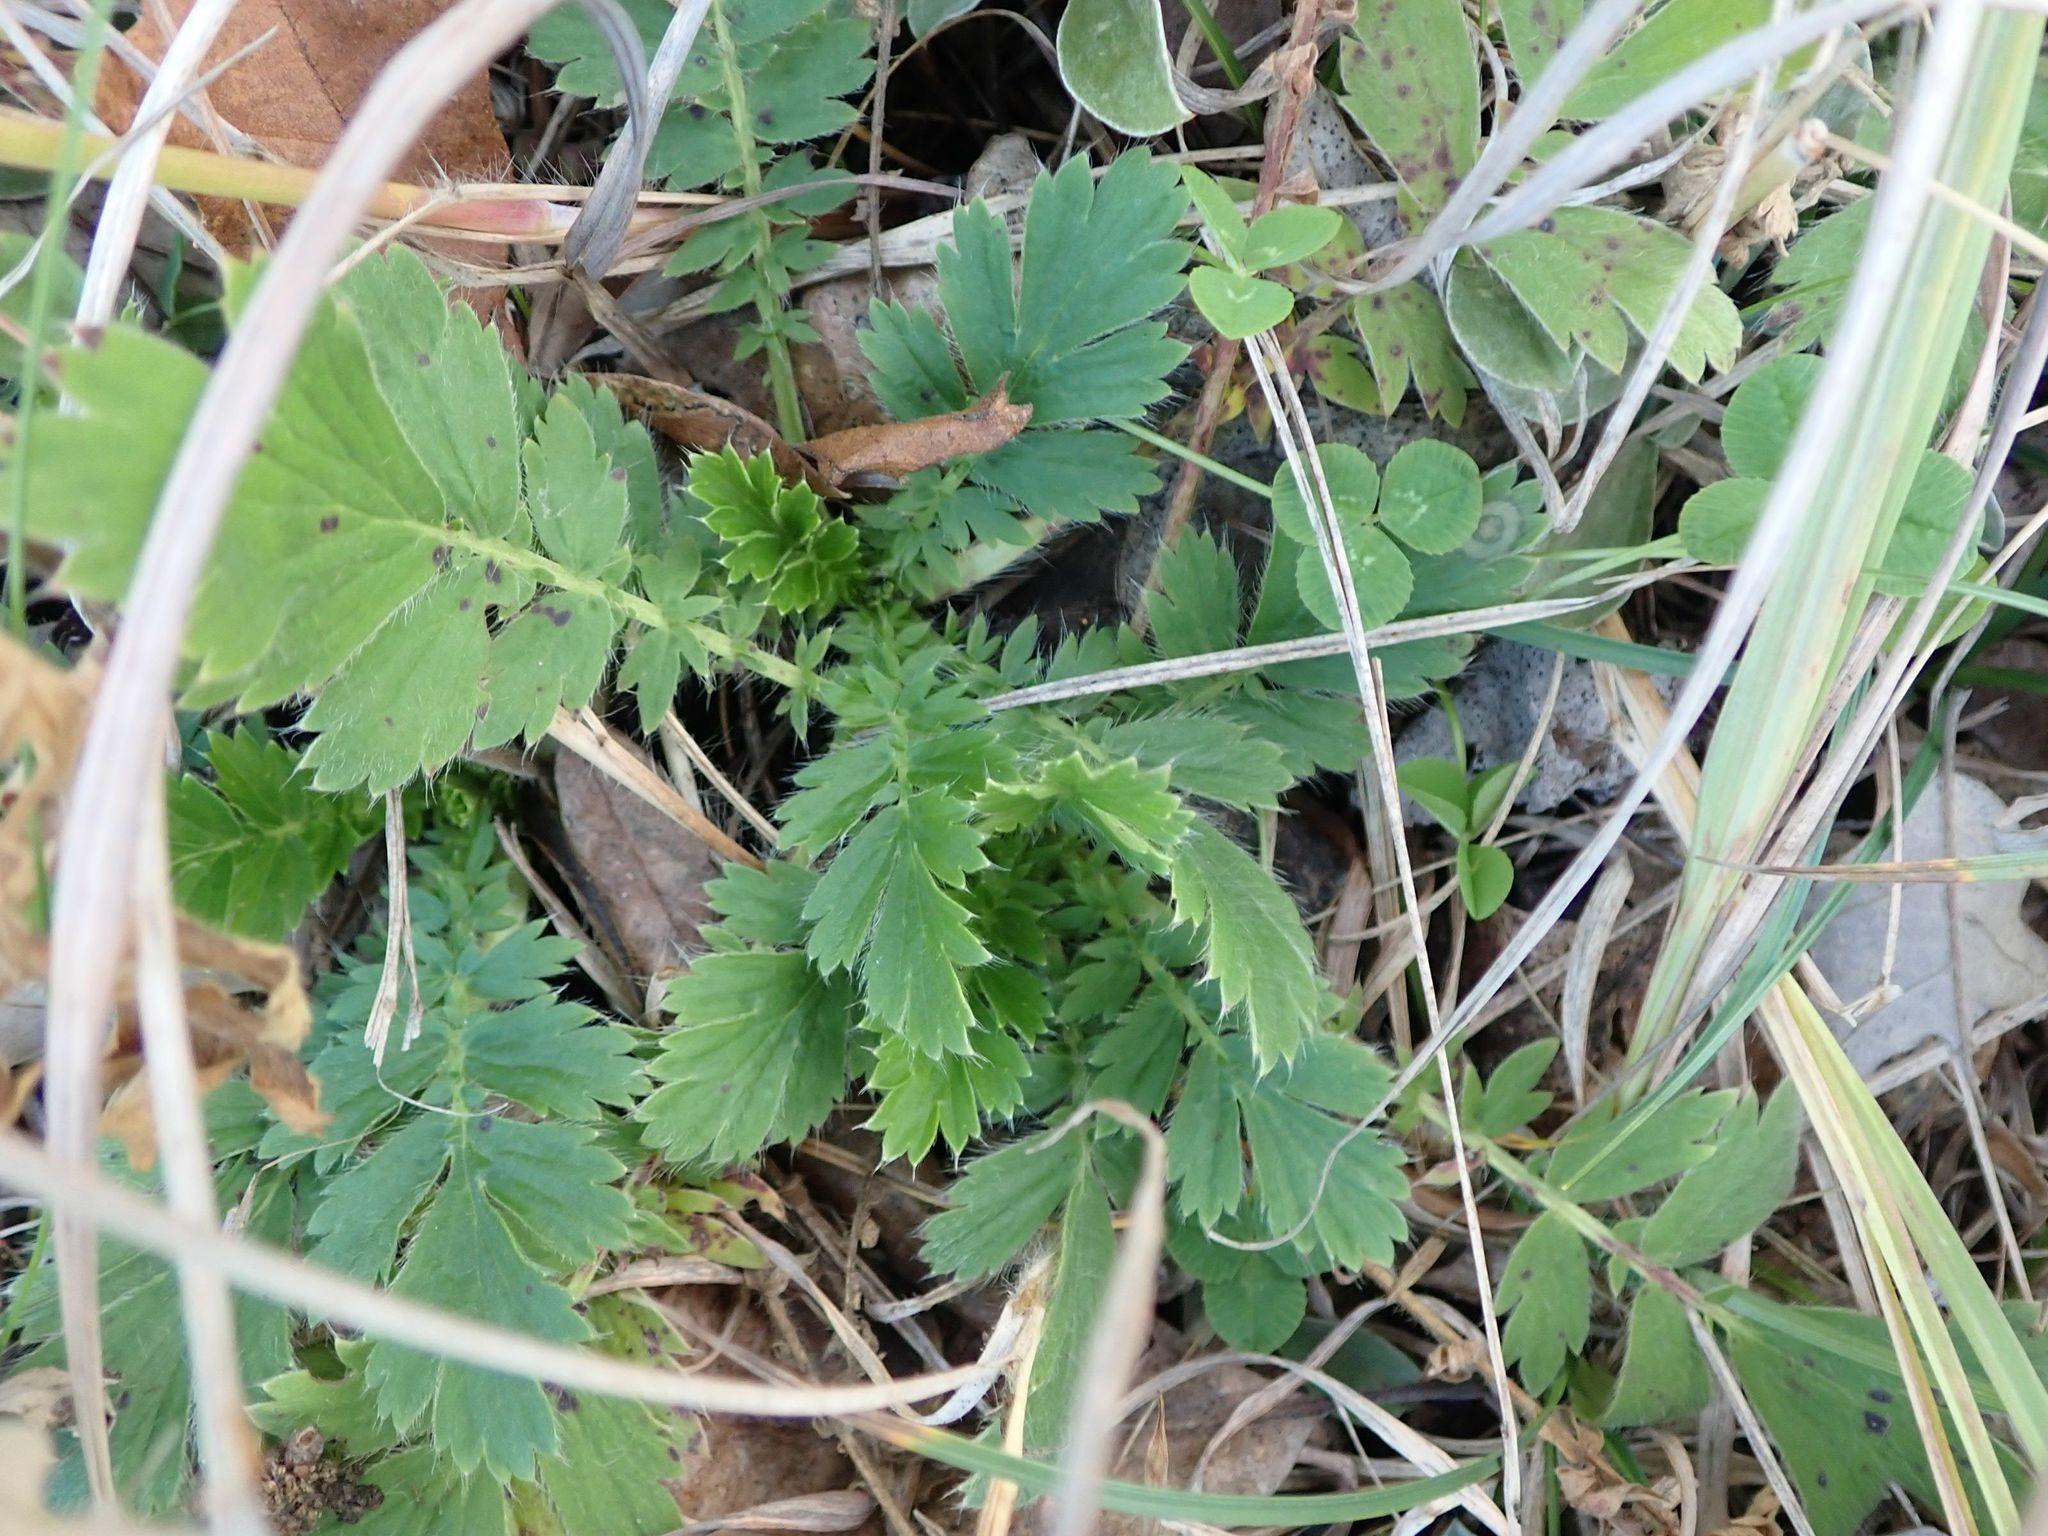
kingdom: Plantae
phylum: Tracheophyta
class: Magnoliopsida
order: Rosales
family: Rosaceae
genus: Geum
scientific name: Geum triflorum
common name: Old man's whiskers
